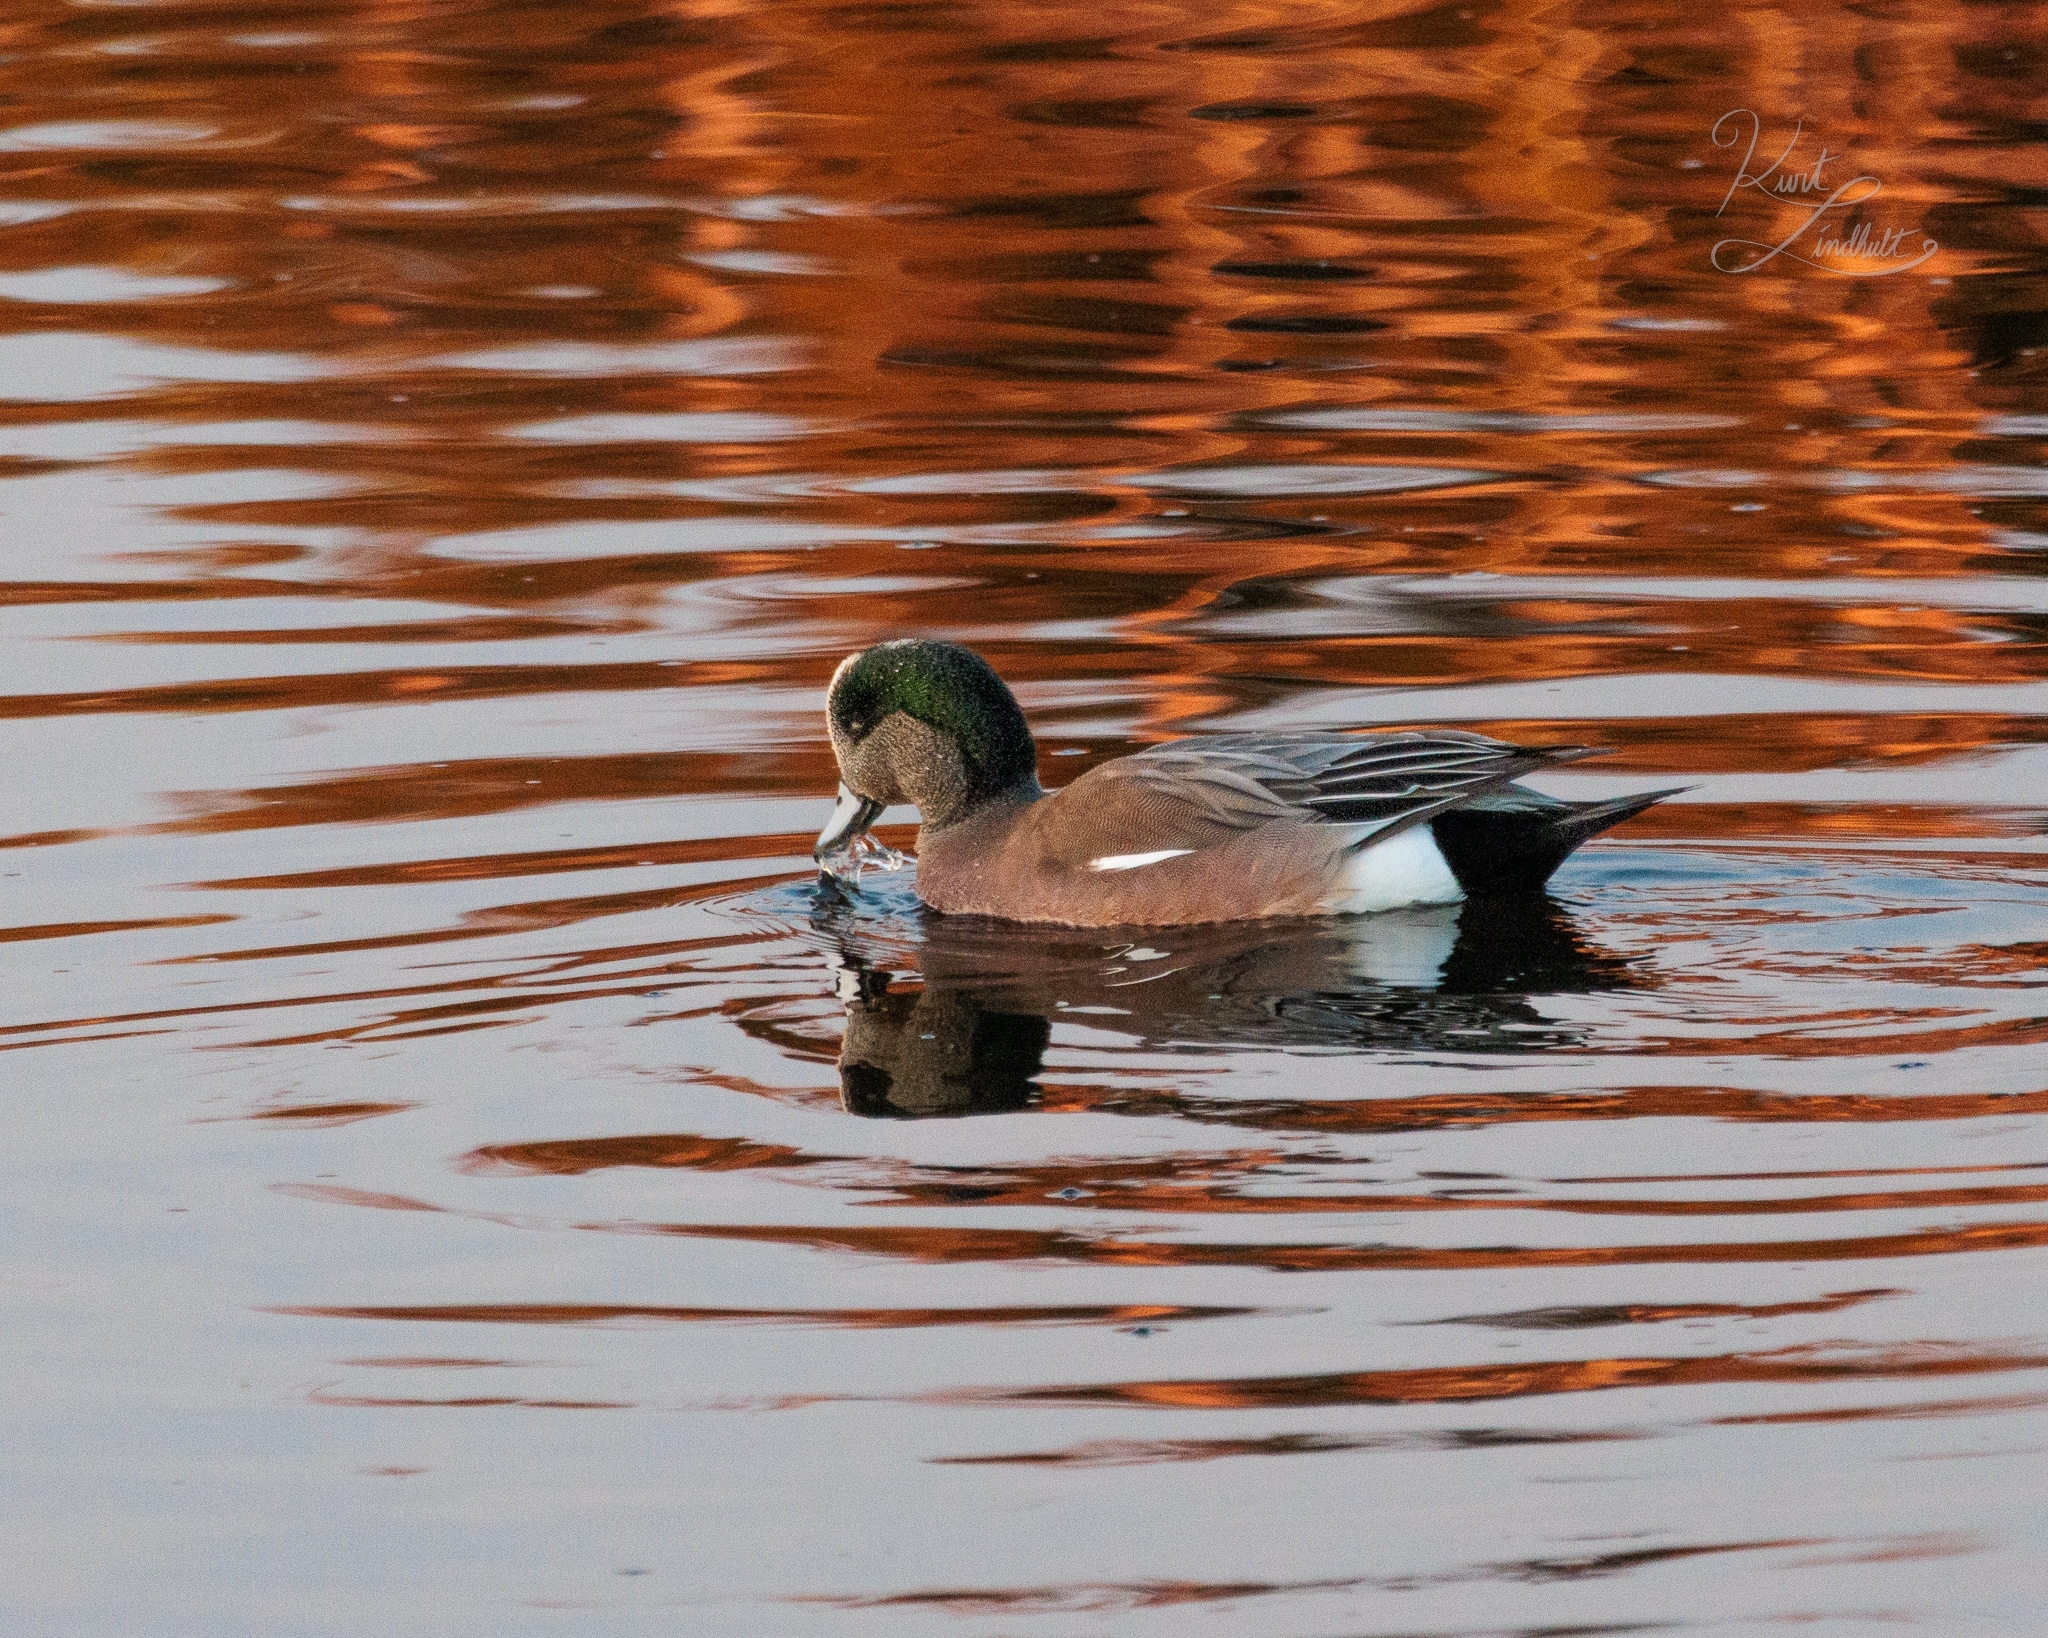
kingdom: Animalia
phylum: Chordata
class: Aves
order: Anseriformes
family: Anatidae
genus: Mareca
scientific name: Mareca americana
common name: American wigeon
